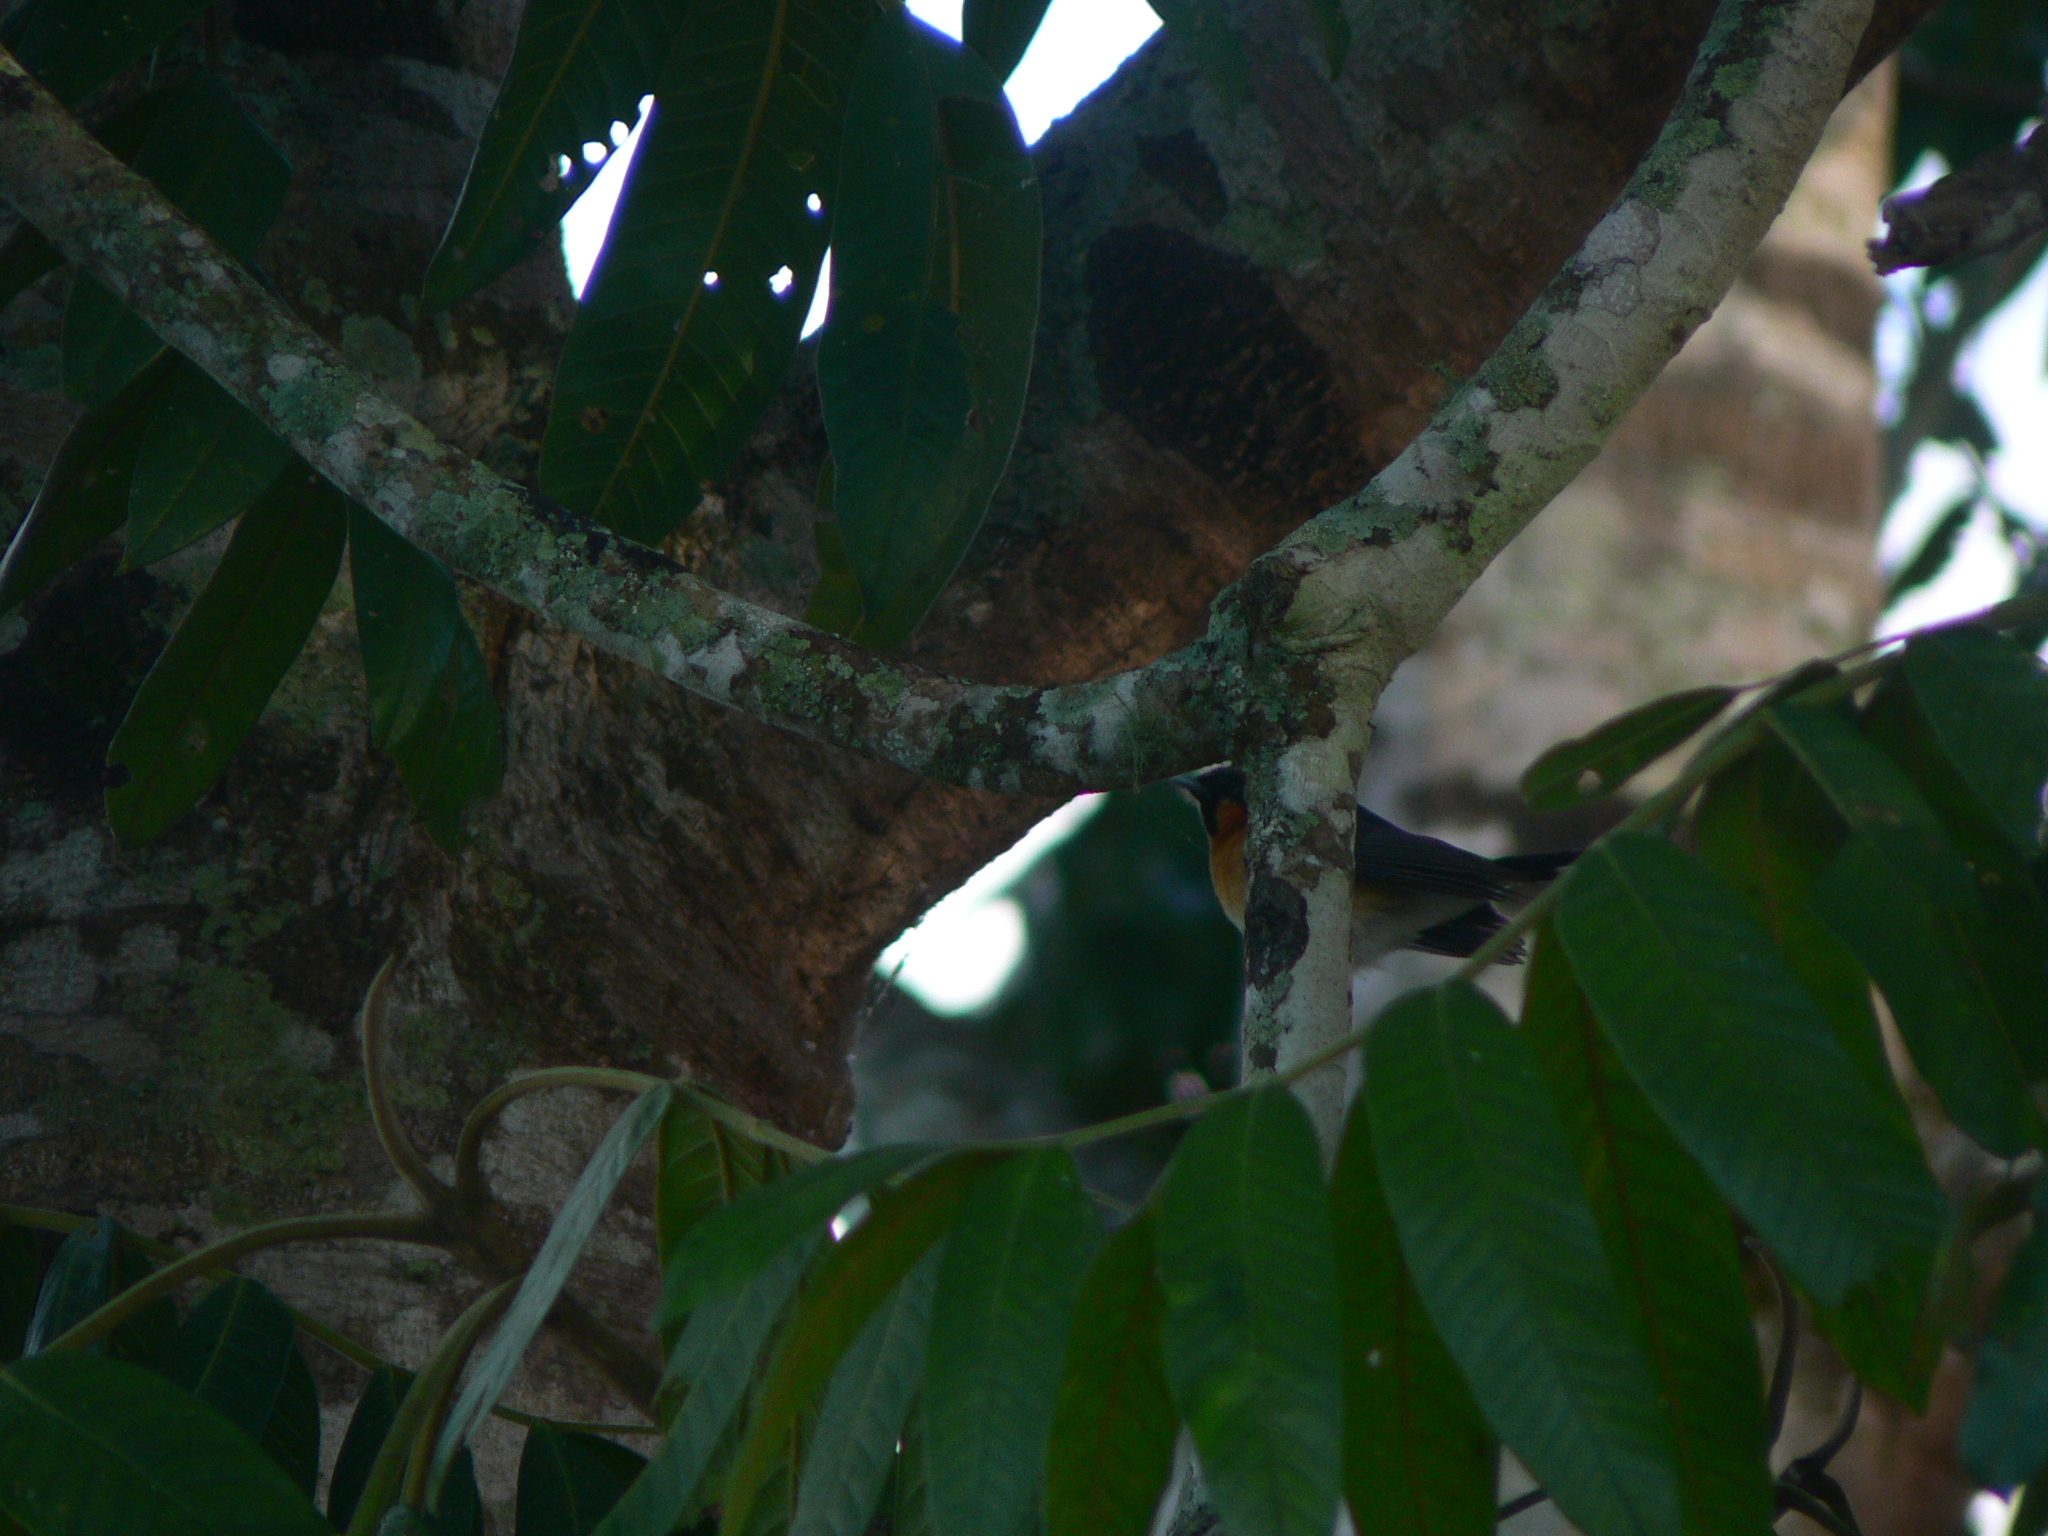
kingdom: Animalia
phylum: Chordata
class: Aves
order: Passeriformes
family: Monarchidae
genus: Symposiachrus
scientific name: Symposiachrus trivirgatus
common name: Spectacled monarch
